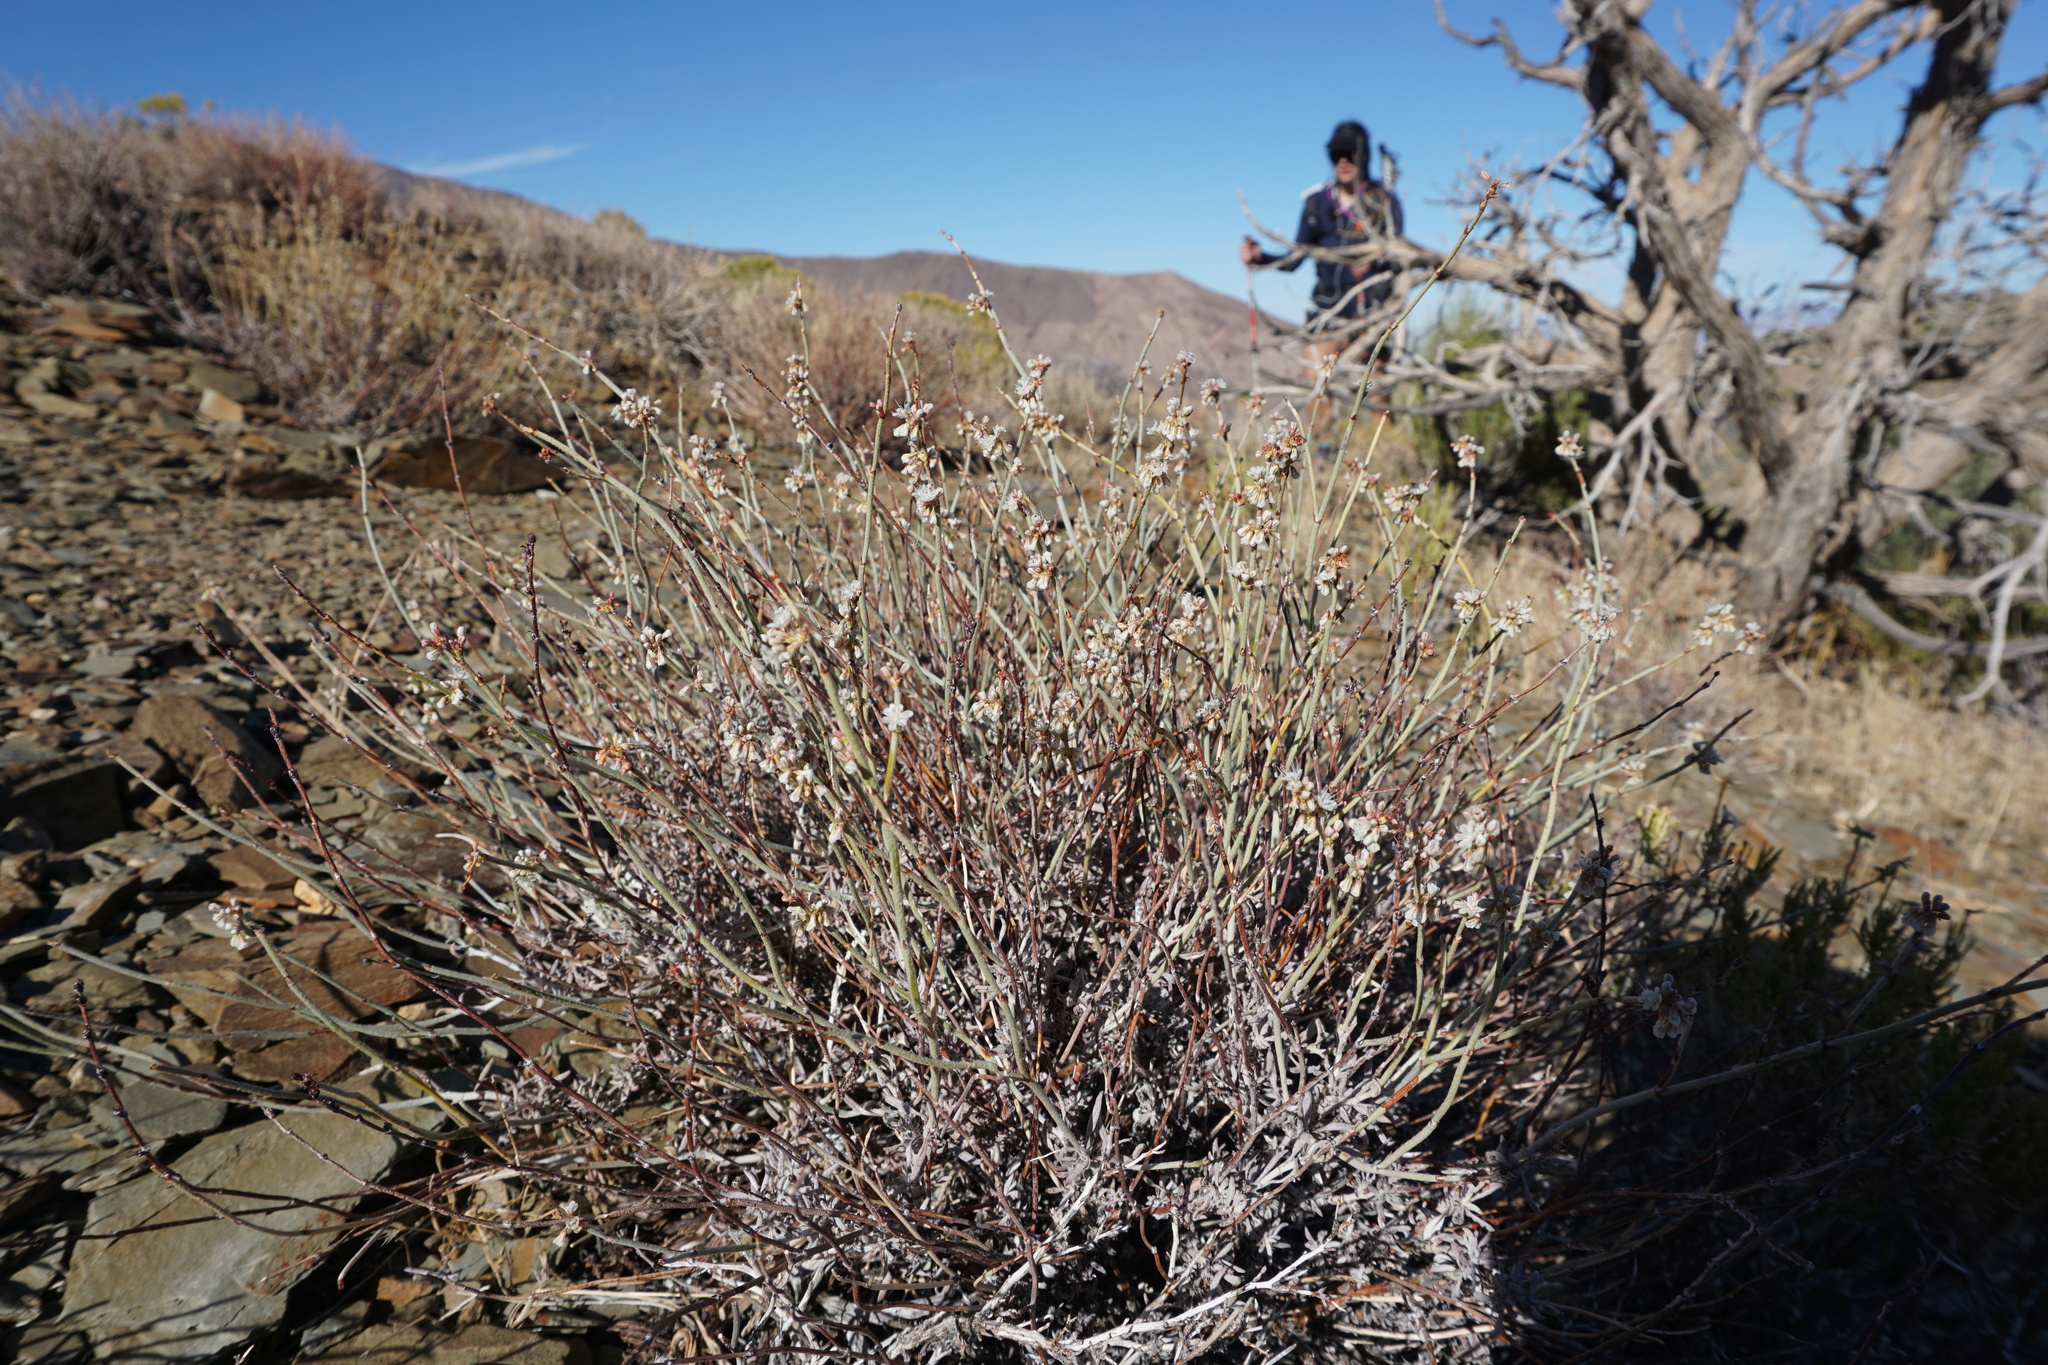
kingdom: Plantae
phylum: Tracheophyta
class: Magnoliopsida
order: Caryophyllales
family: Polygonaceae
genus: Eriogonum
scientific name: Eriogonum wrightii
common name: Bastard-sage
